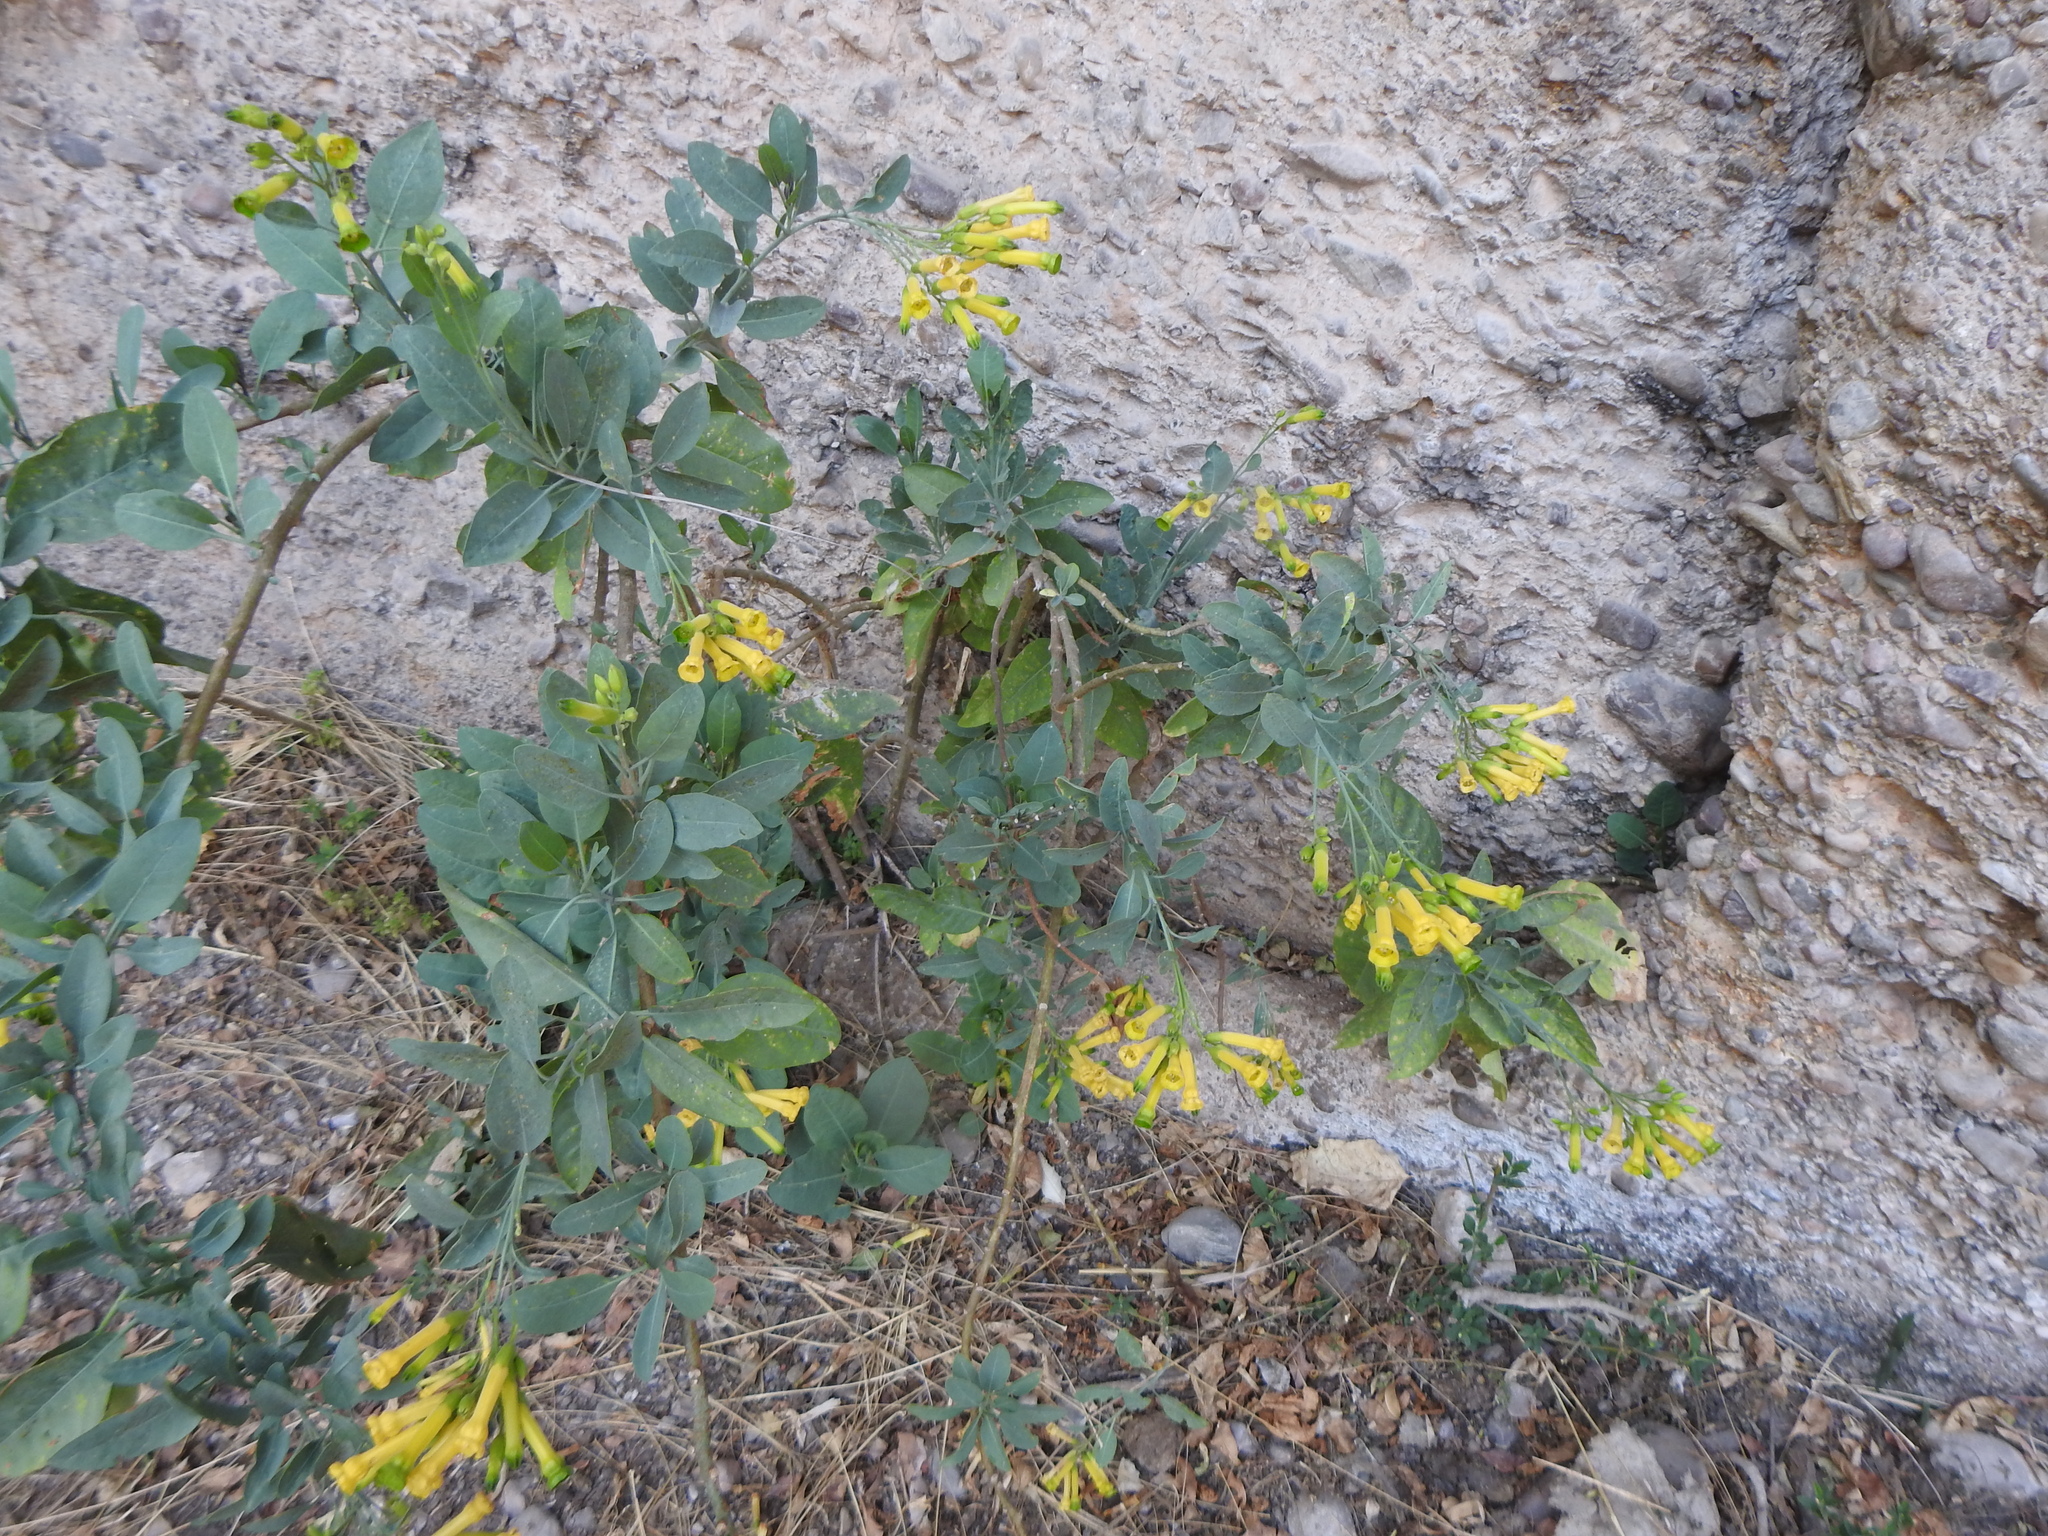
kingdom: Plantae
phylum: Tracheophyta
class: Magnoliopsida
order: Solanales
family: Solanaceae
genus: Nicotiana
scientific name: Nicotiana glauca
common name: Tree tobacco
